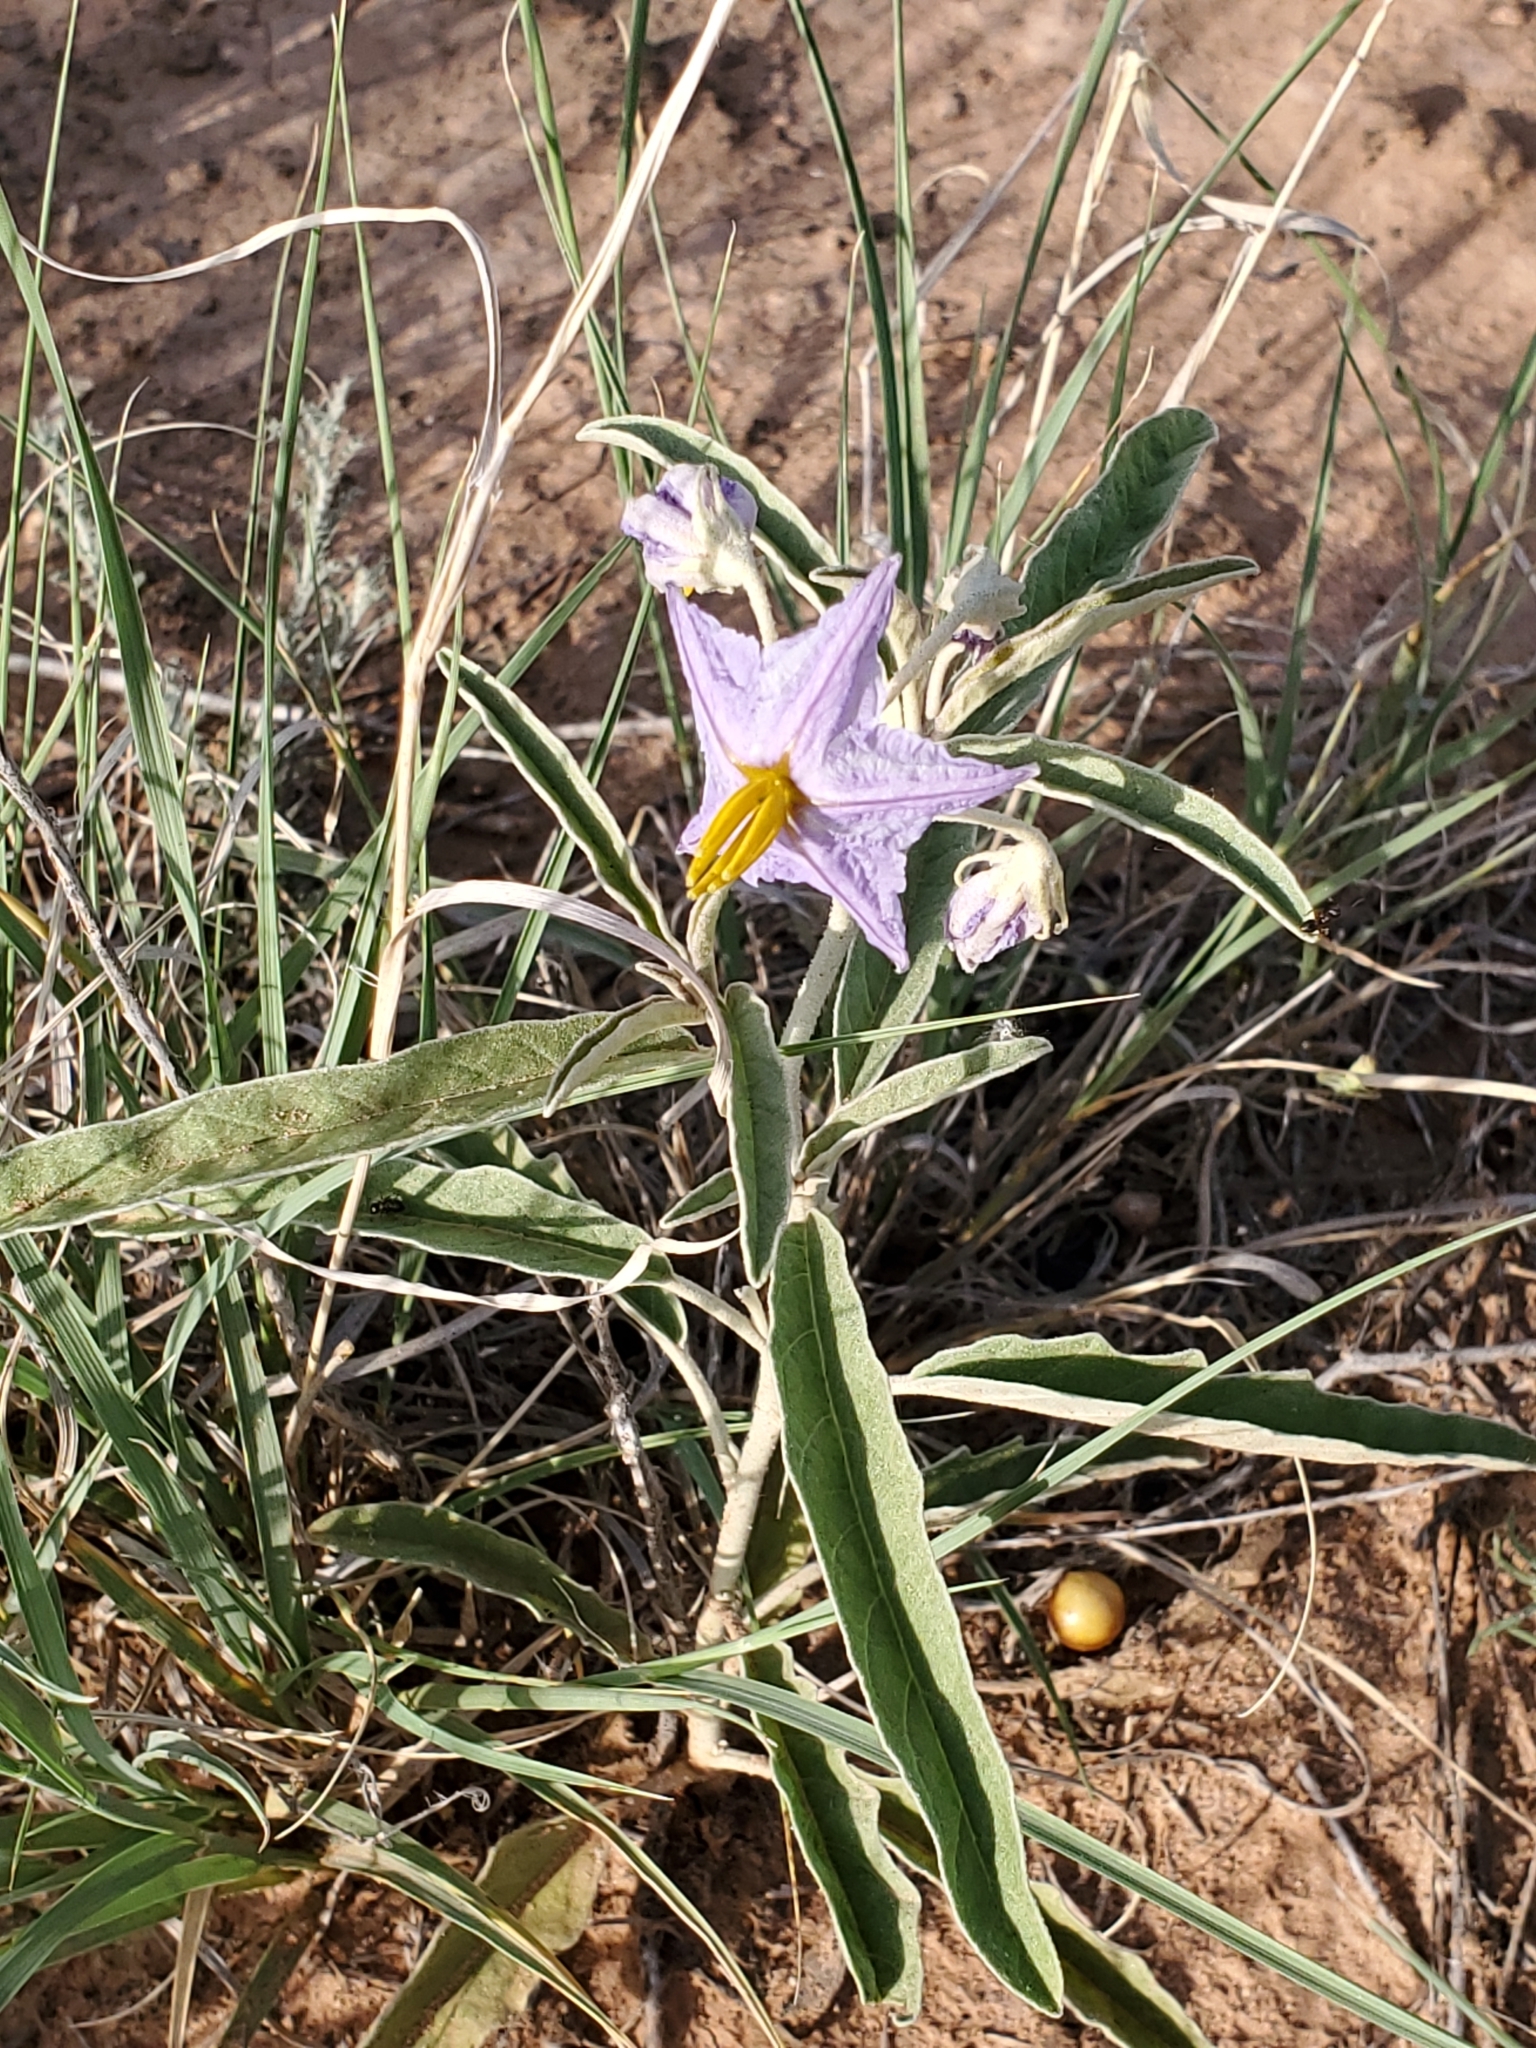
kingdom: Plantae
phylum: Tracheophyta
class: Magnoliopsida
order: Solanales
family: Solanaceae
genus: Solanum
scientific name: Solanum elaeagnifolium
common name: Silverleaf nightshade
